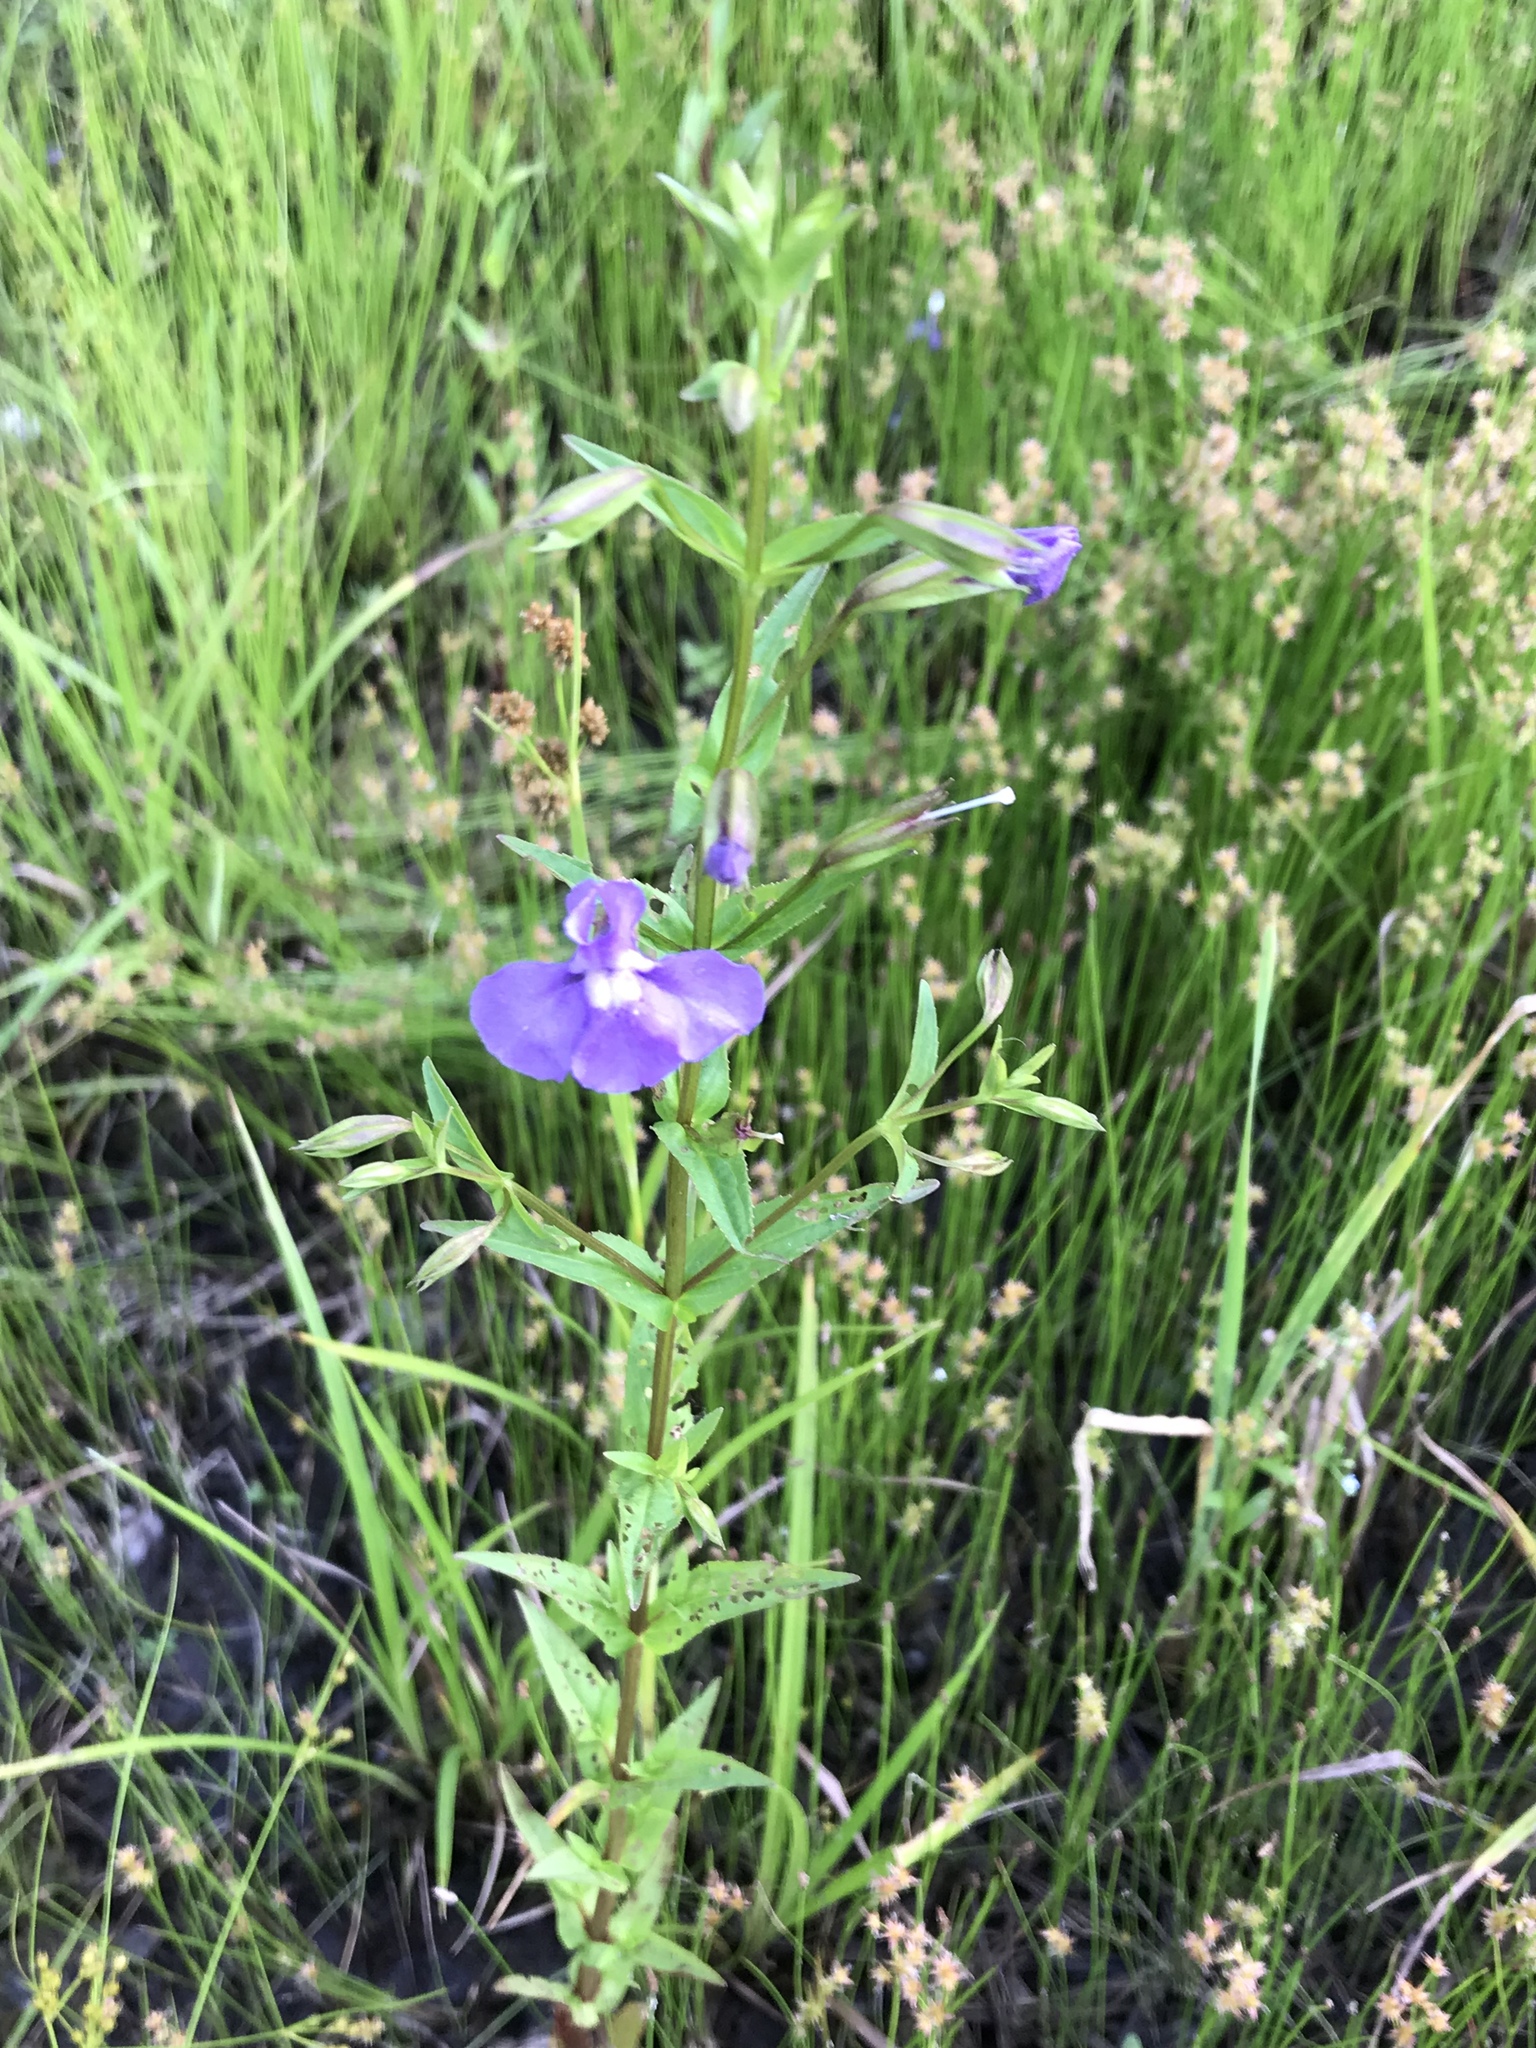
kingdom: Plantae
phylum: Tracheophyta
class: Magnoliopsida
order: Lamiales
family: Phrymaceae
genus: Mimulus
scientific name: Mimulus ringens
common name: Allegheny monkeyflower
